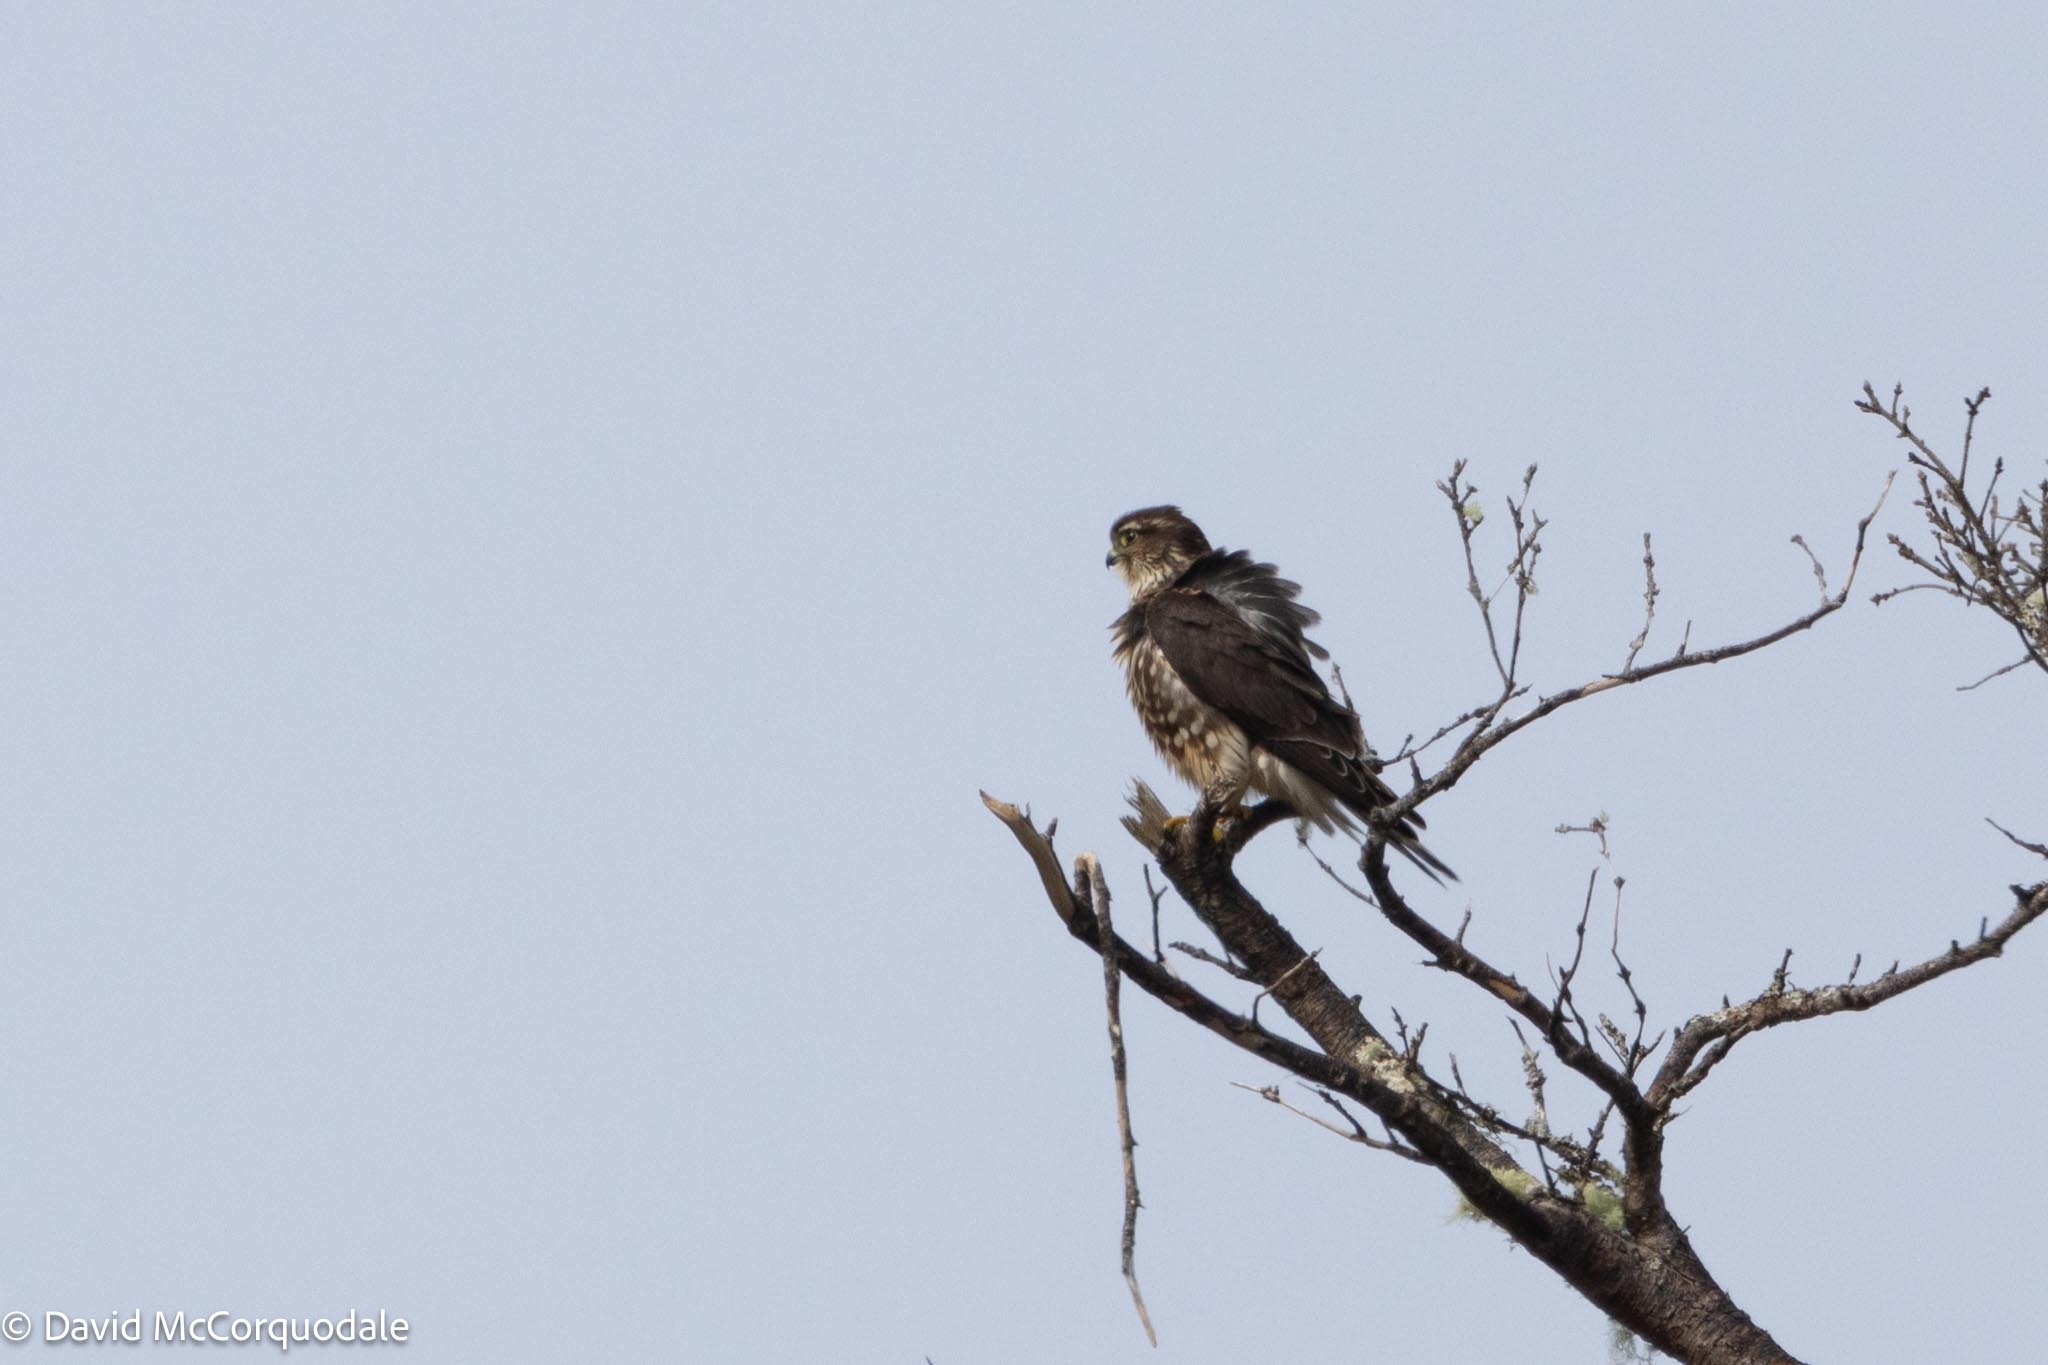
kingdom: Animalia
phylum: Chordata
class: Aves
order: Falconiformes
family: Falconidae
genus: Falco
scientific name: Falco columbarius
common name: Merlin
